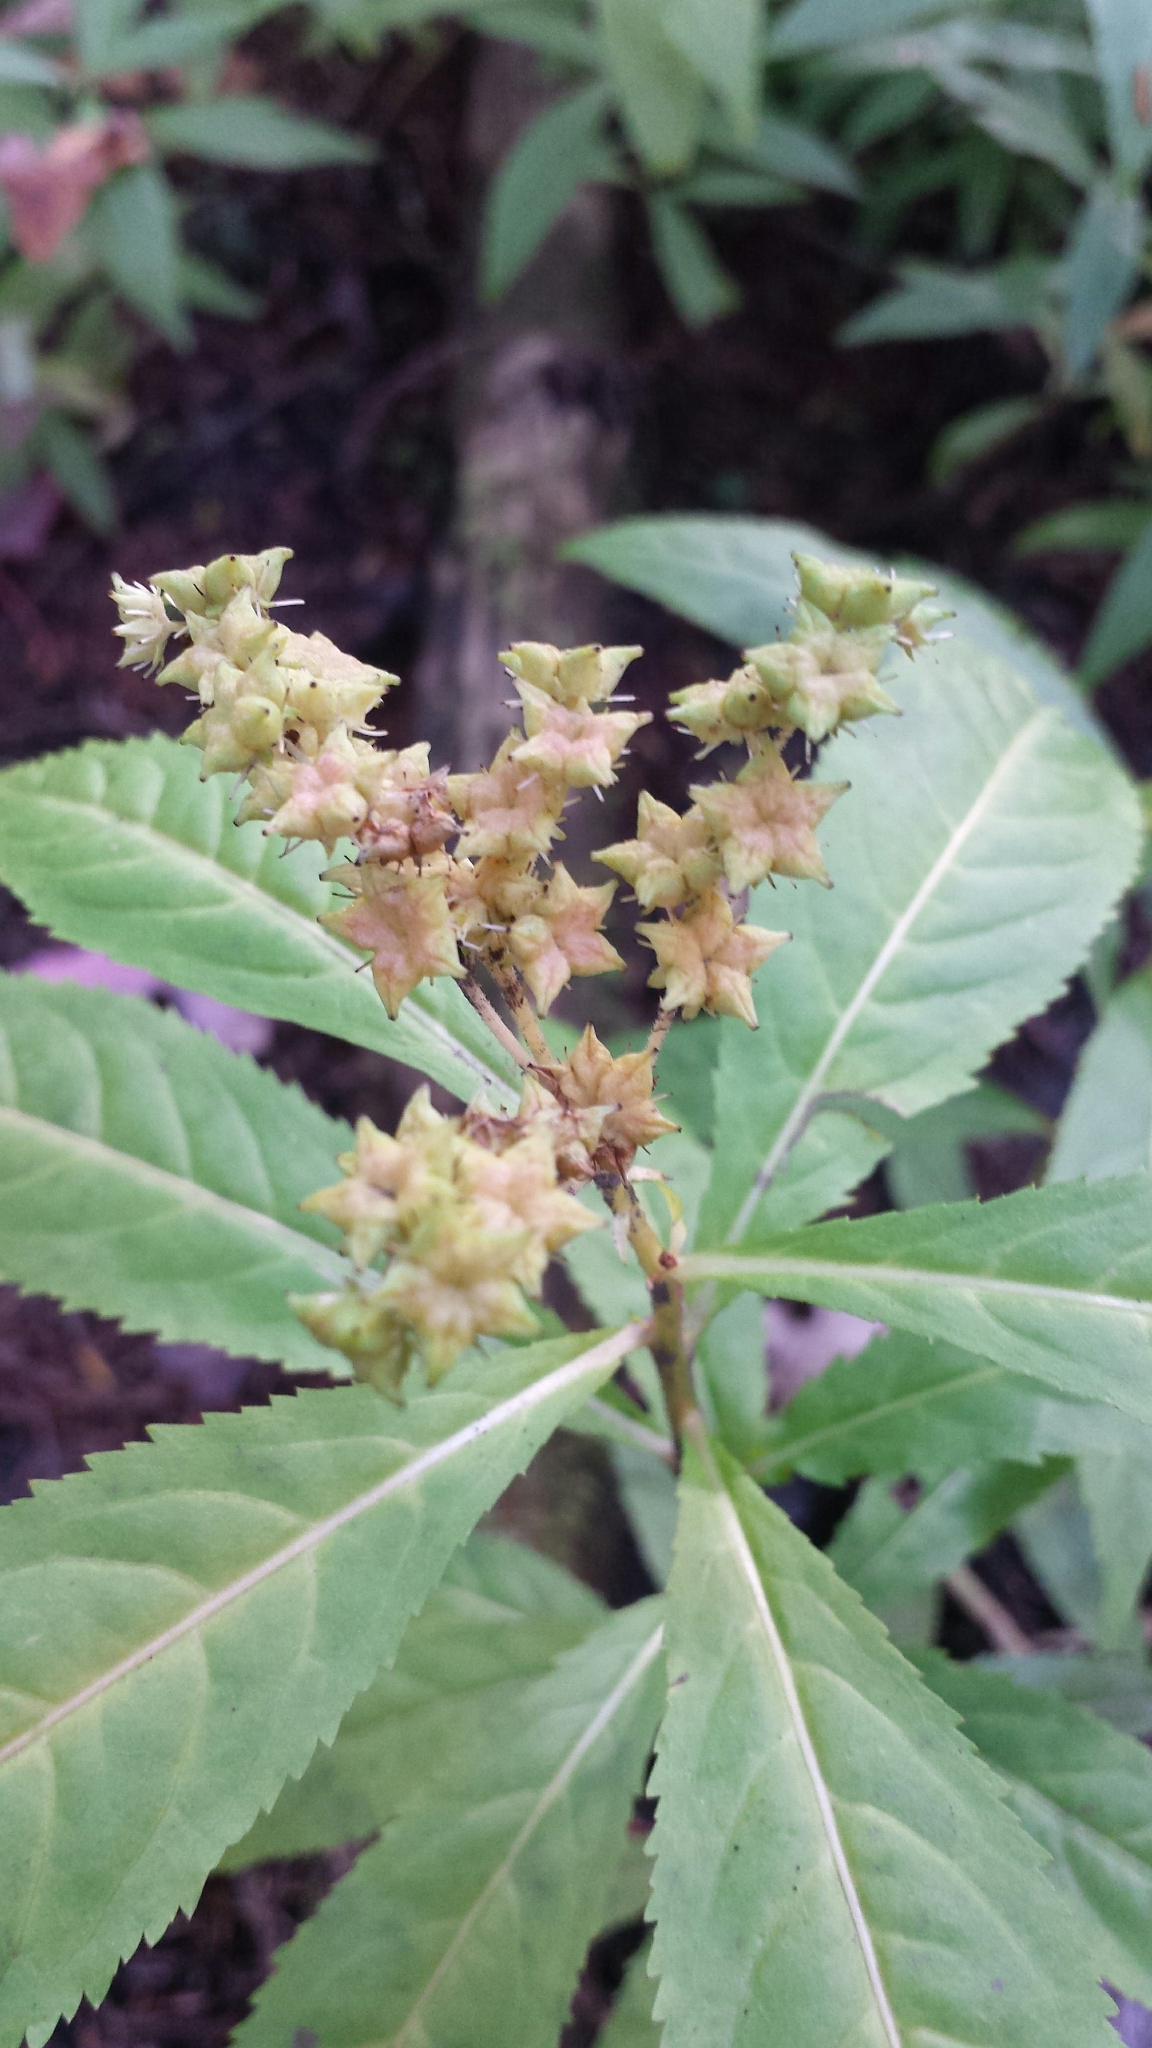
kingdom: Plantae
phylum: Tracheophyta
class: Magnoliopsida
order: Saxifragales
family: Penthoraceae
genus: Penthorum
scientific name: Penthorum sedoides
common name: Ditch stonecrop
